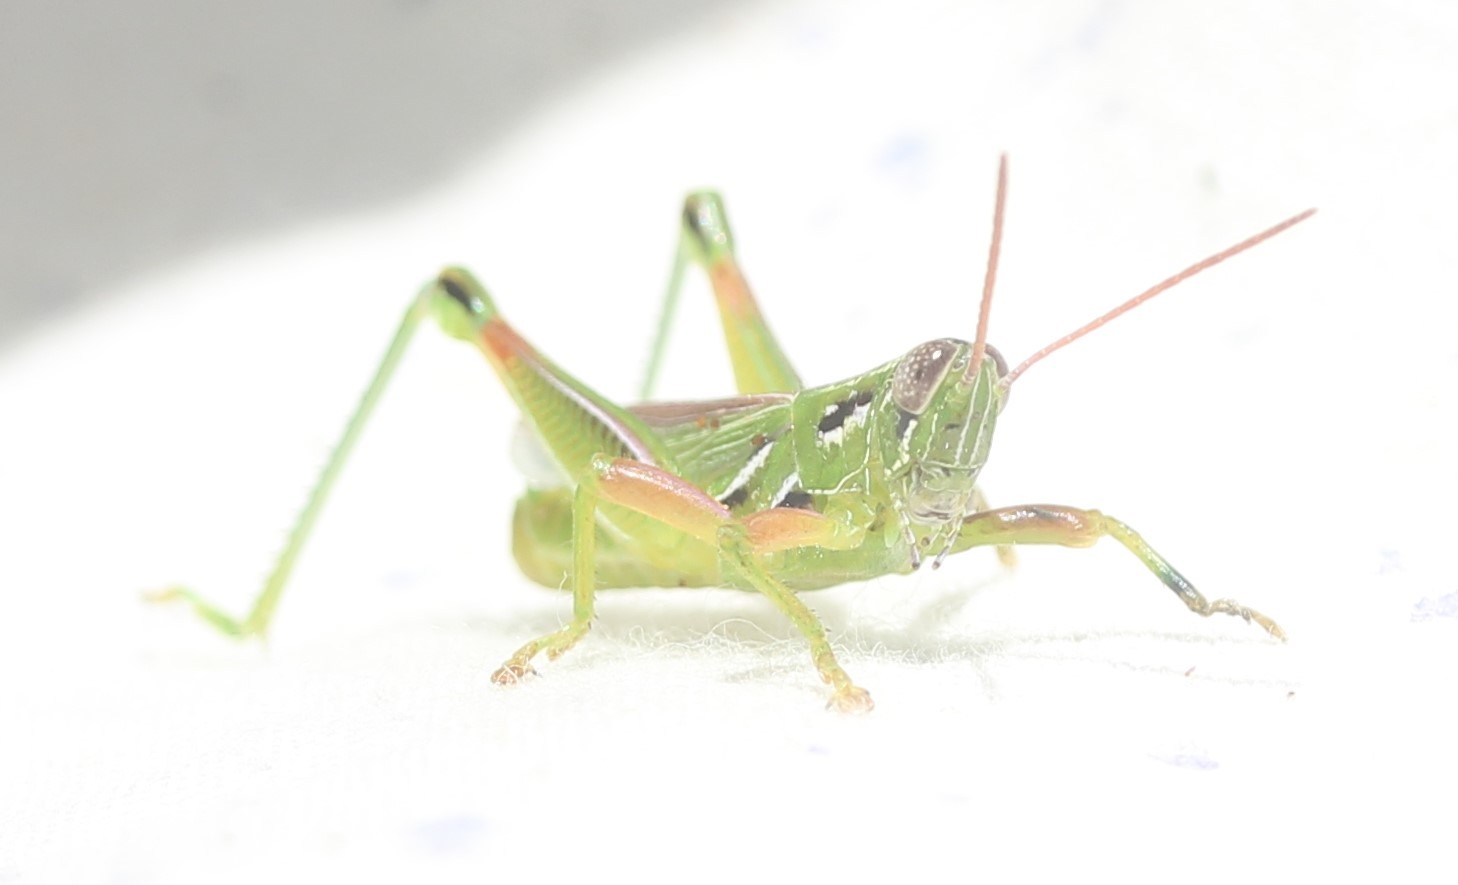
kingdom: Animalia
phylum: Arthropoda
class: Insecta
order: Orthoptera
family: Acrididae
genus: Hesperotettix
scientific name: Hesperotettix viridis
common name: Meadow purple-striped grasshopper
